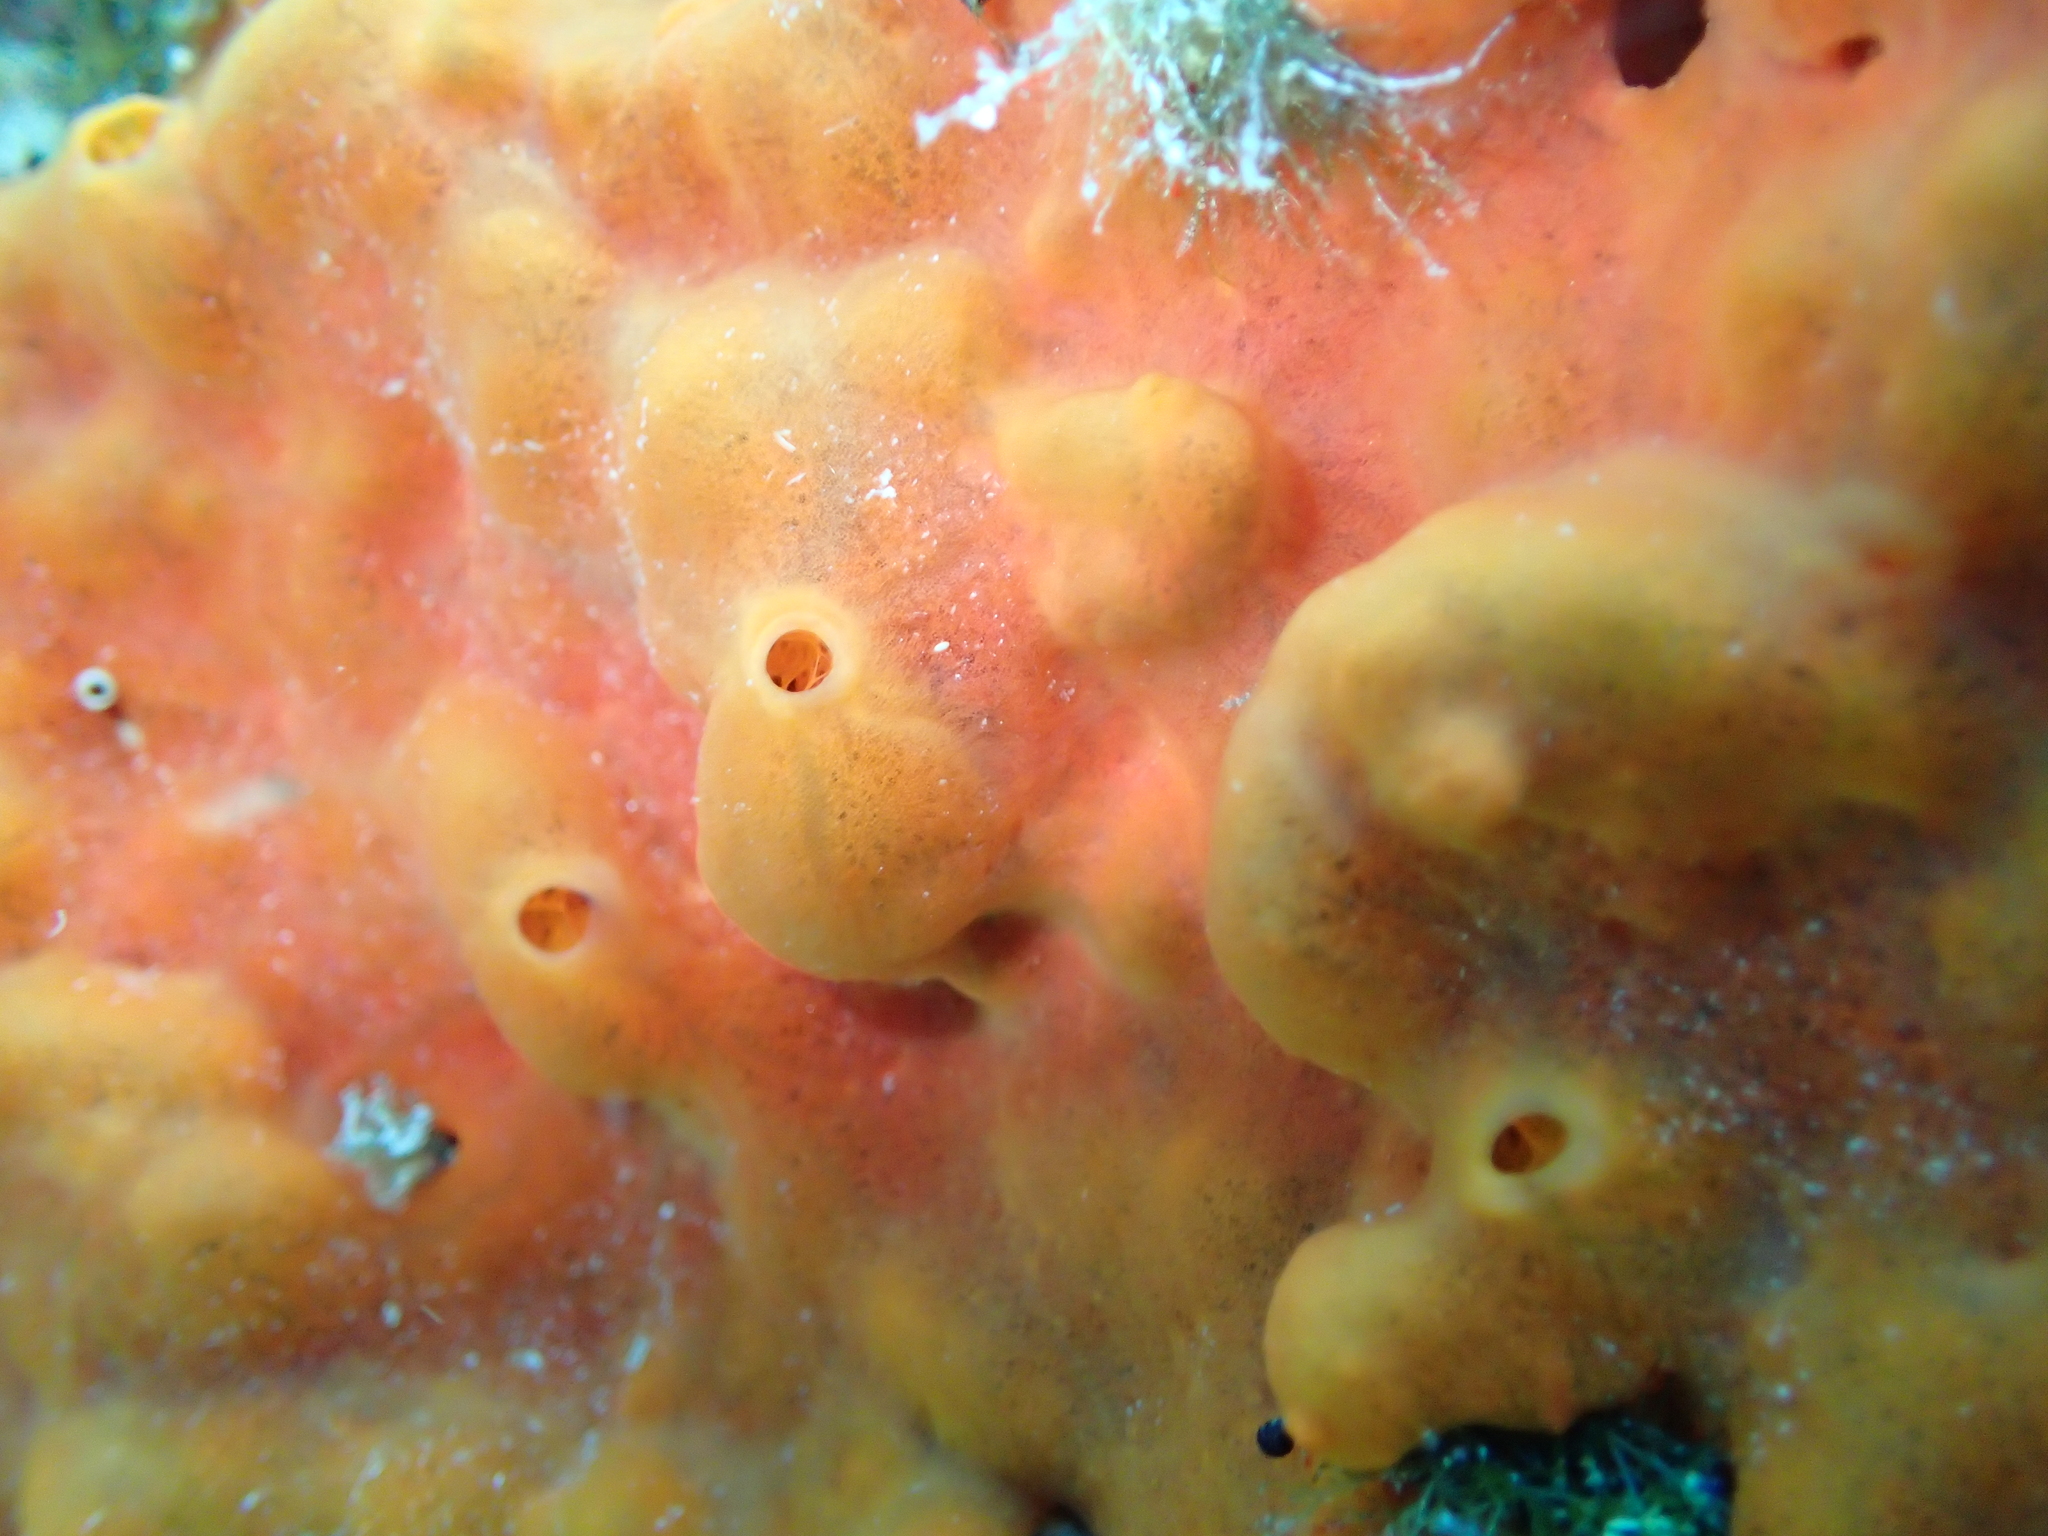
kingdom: Animalia
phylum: Porifera
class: Demospongiae
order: Poecilosclerida
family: Crambeidae
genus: Crambe
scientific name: Crambe crambe
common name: Orange-red encrusting sponge
